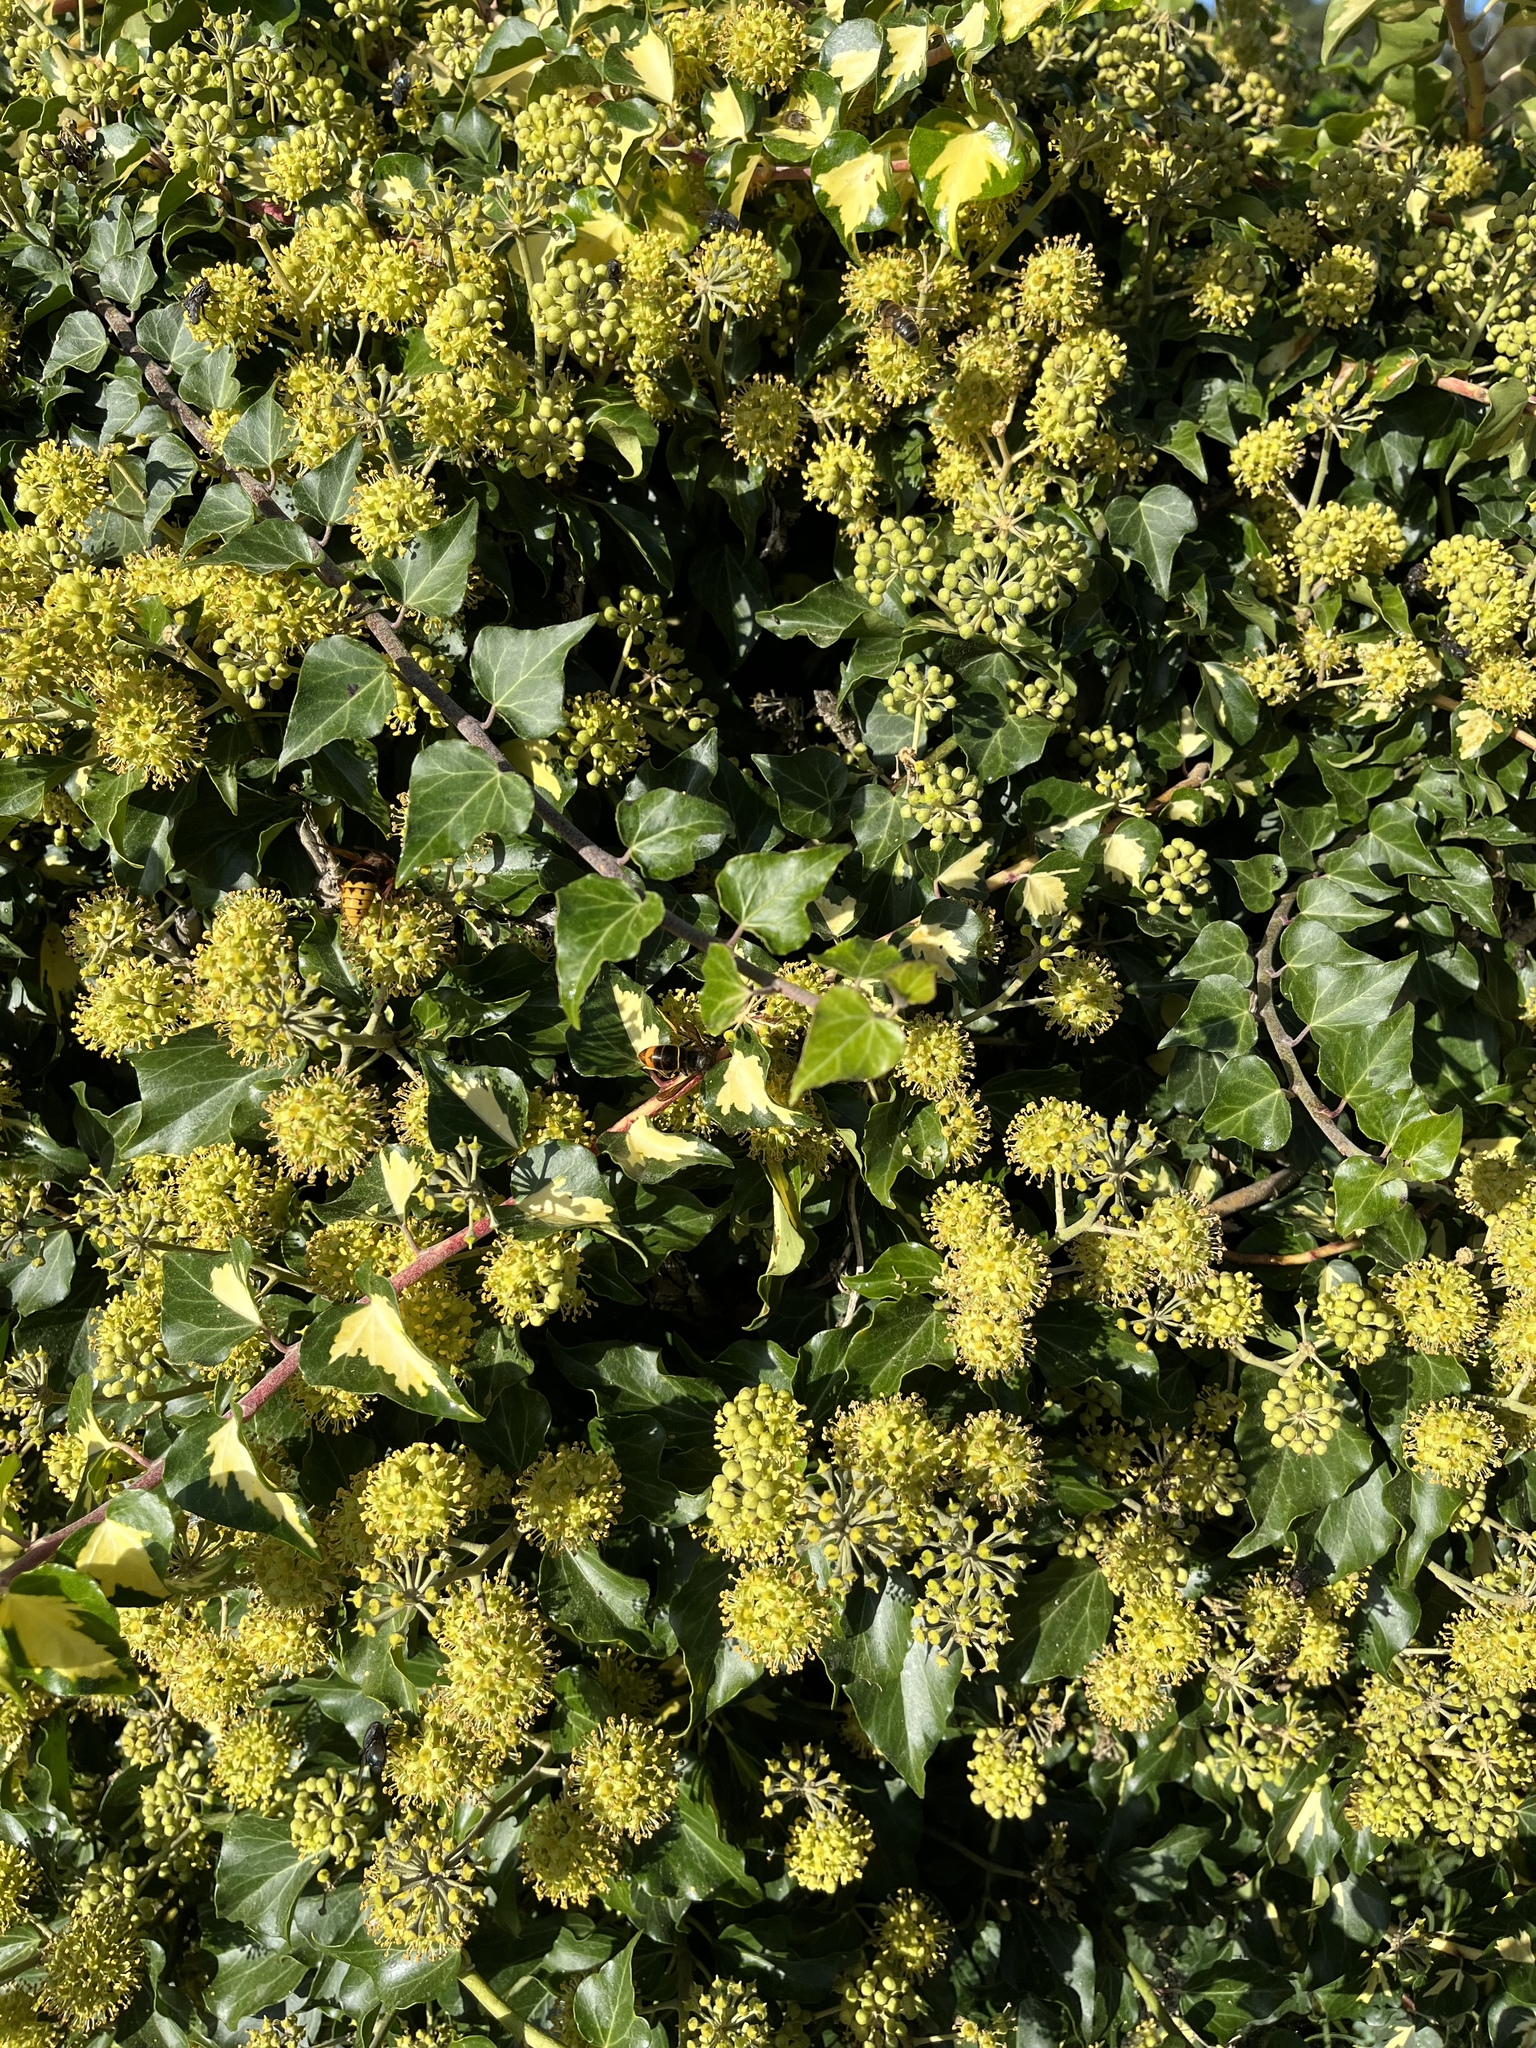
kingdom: Animalia
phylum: Arthropoda
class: Insecta
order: Hymenoptera
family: Vespidae
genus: Vespa
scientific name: Vespa velutina
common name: Asian hornet
